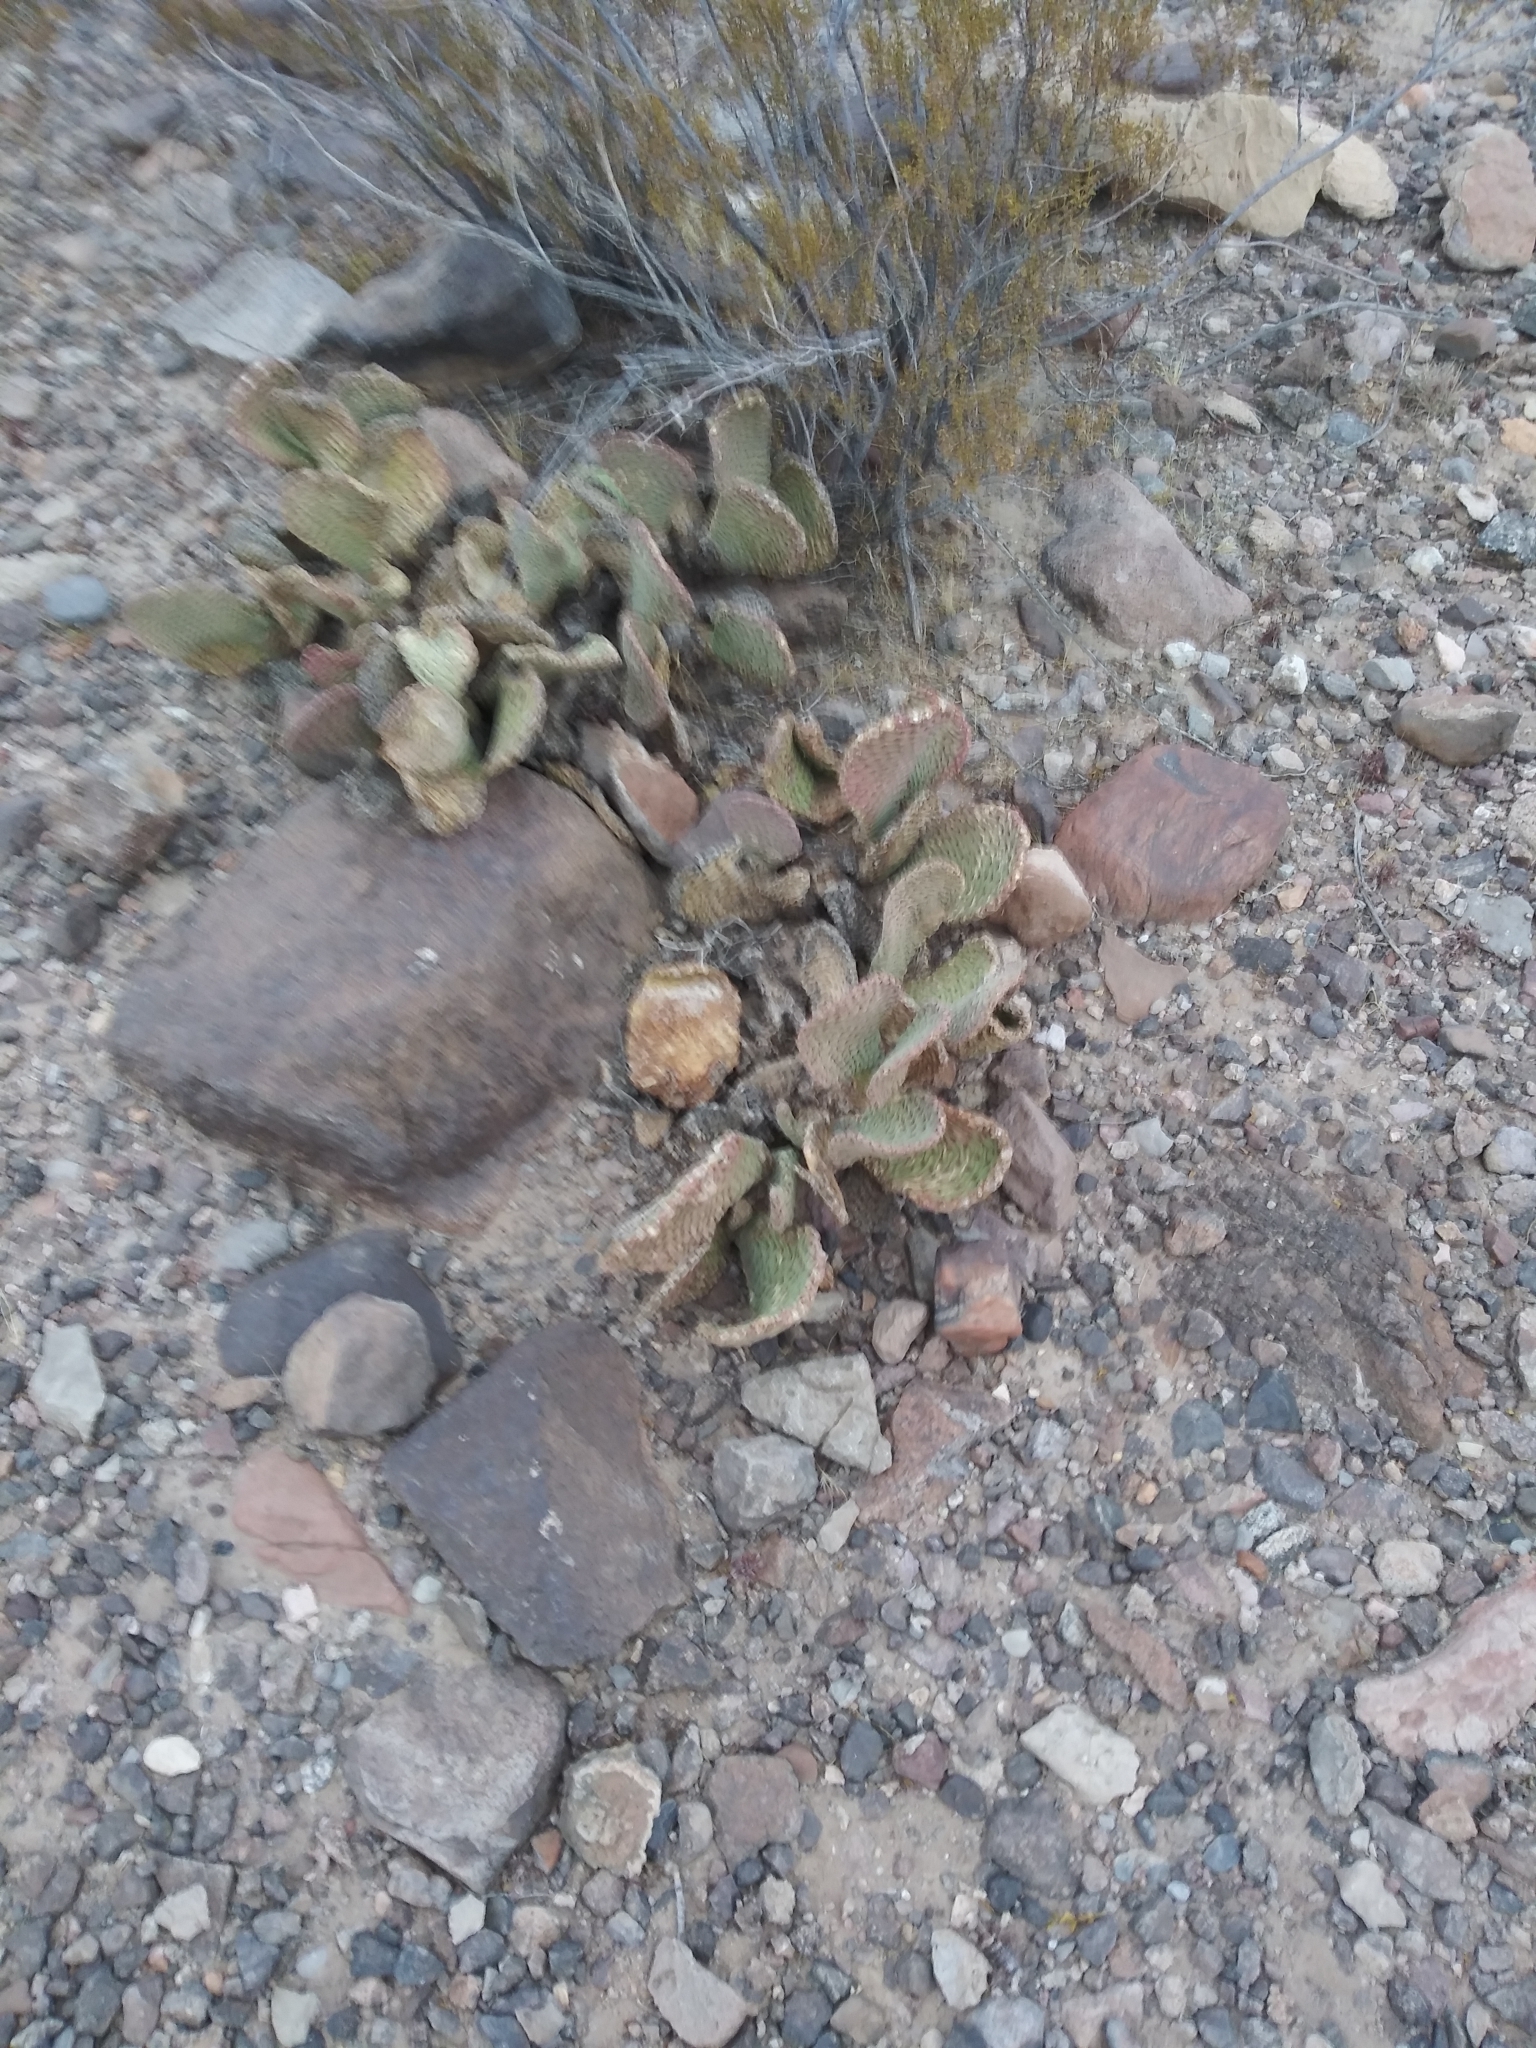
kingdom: Plantae
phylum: Tracheophyta
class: Magnoliopsida
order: Caryophyllales
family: Cactaceae
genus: Opuntia
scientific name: Opuntia basilaris
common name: Beavertail prickly-pear
